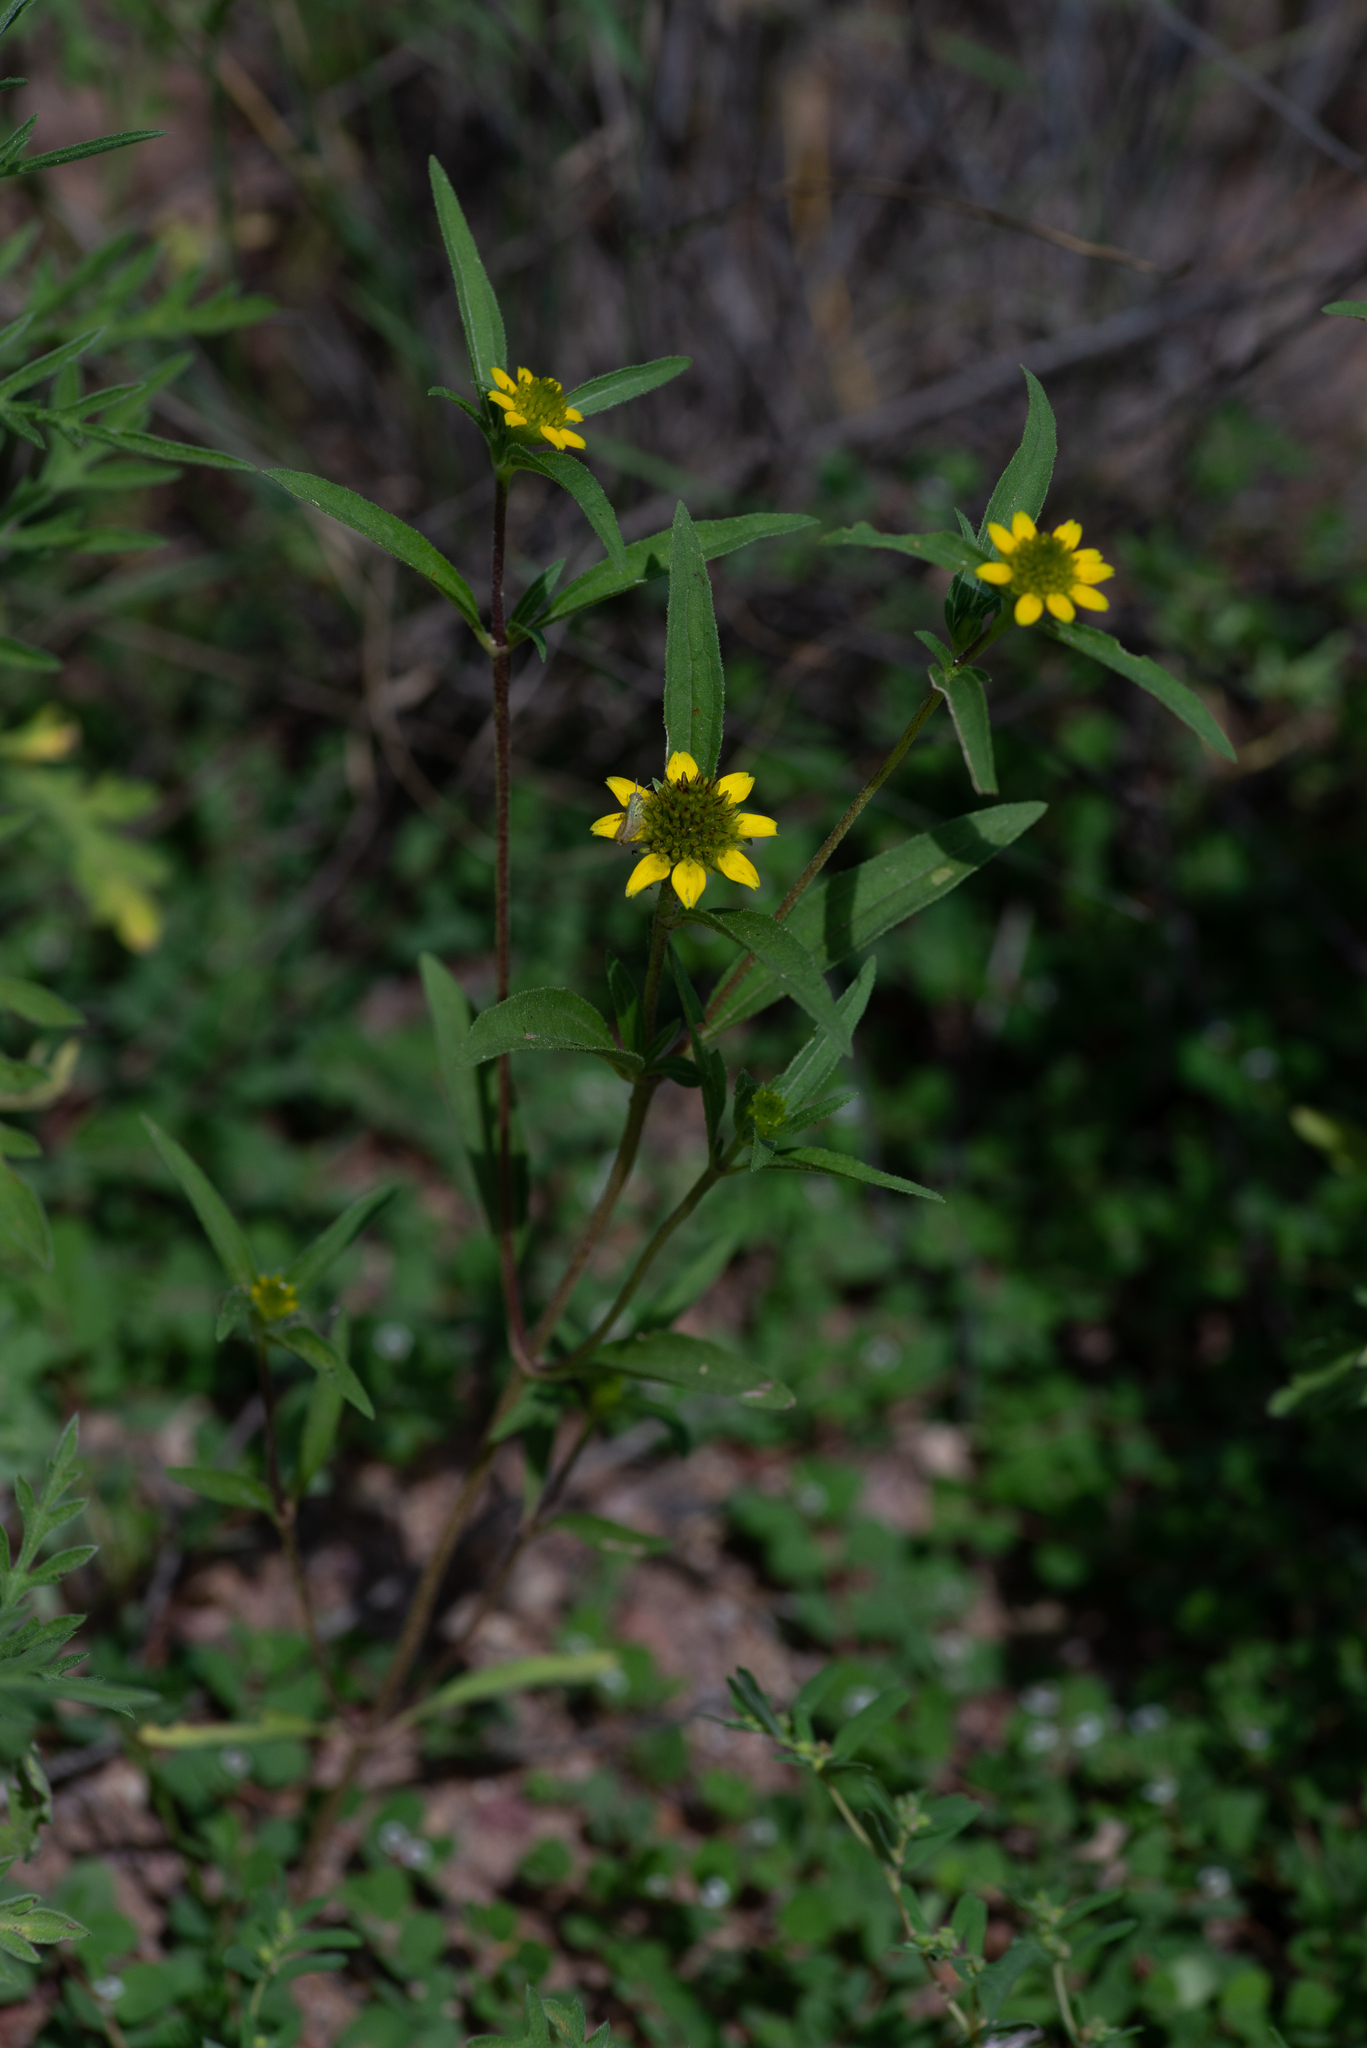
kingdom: Plantae
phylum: Tracheophyta
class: Magnoliopsida
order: Asterales
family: Asteraceae
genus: Sanvitalia
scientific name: Sanvitalia abertii
